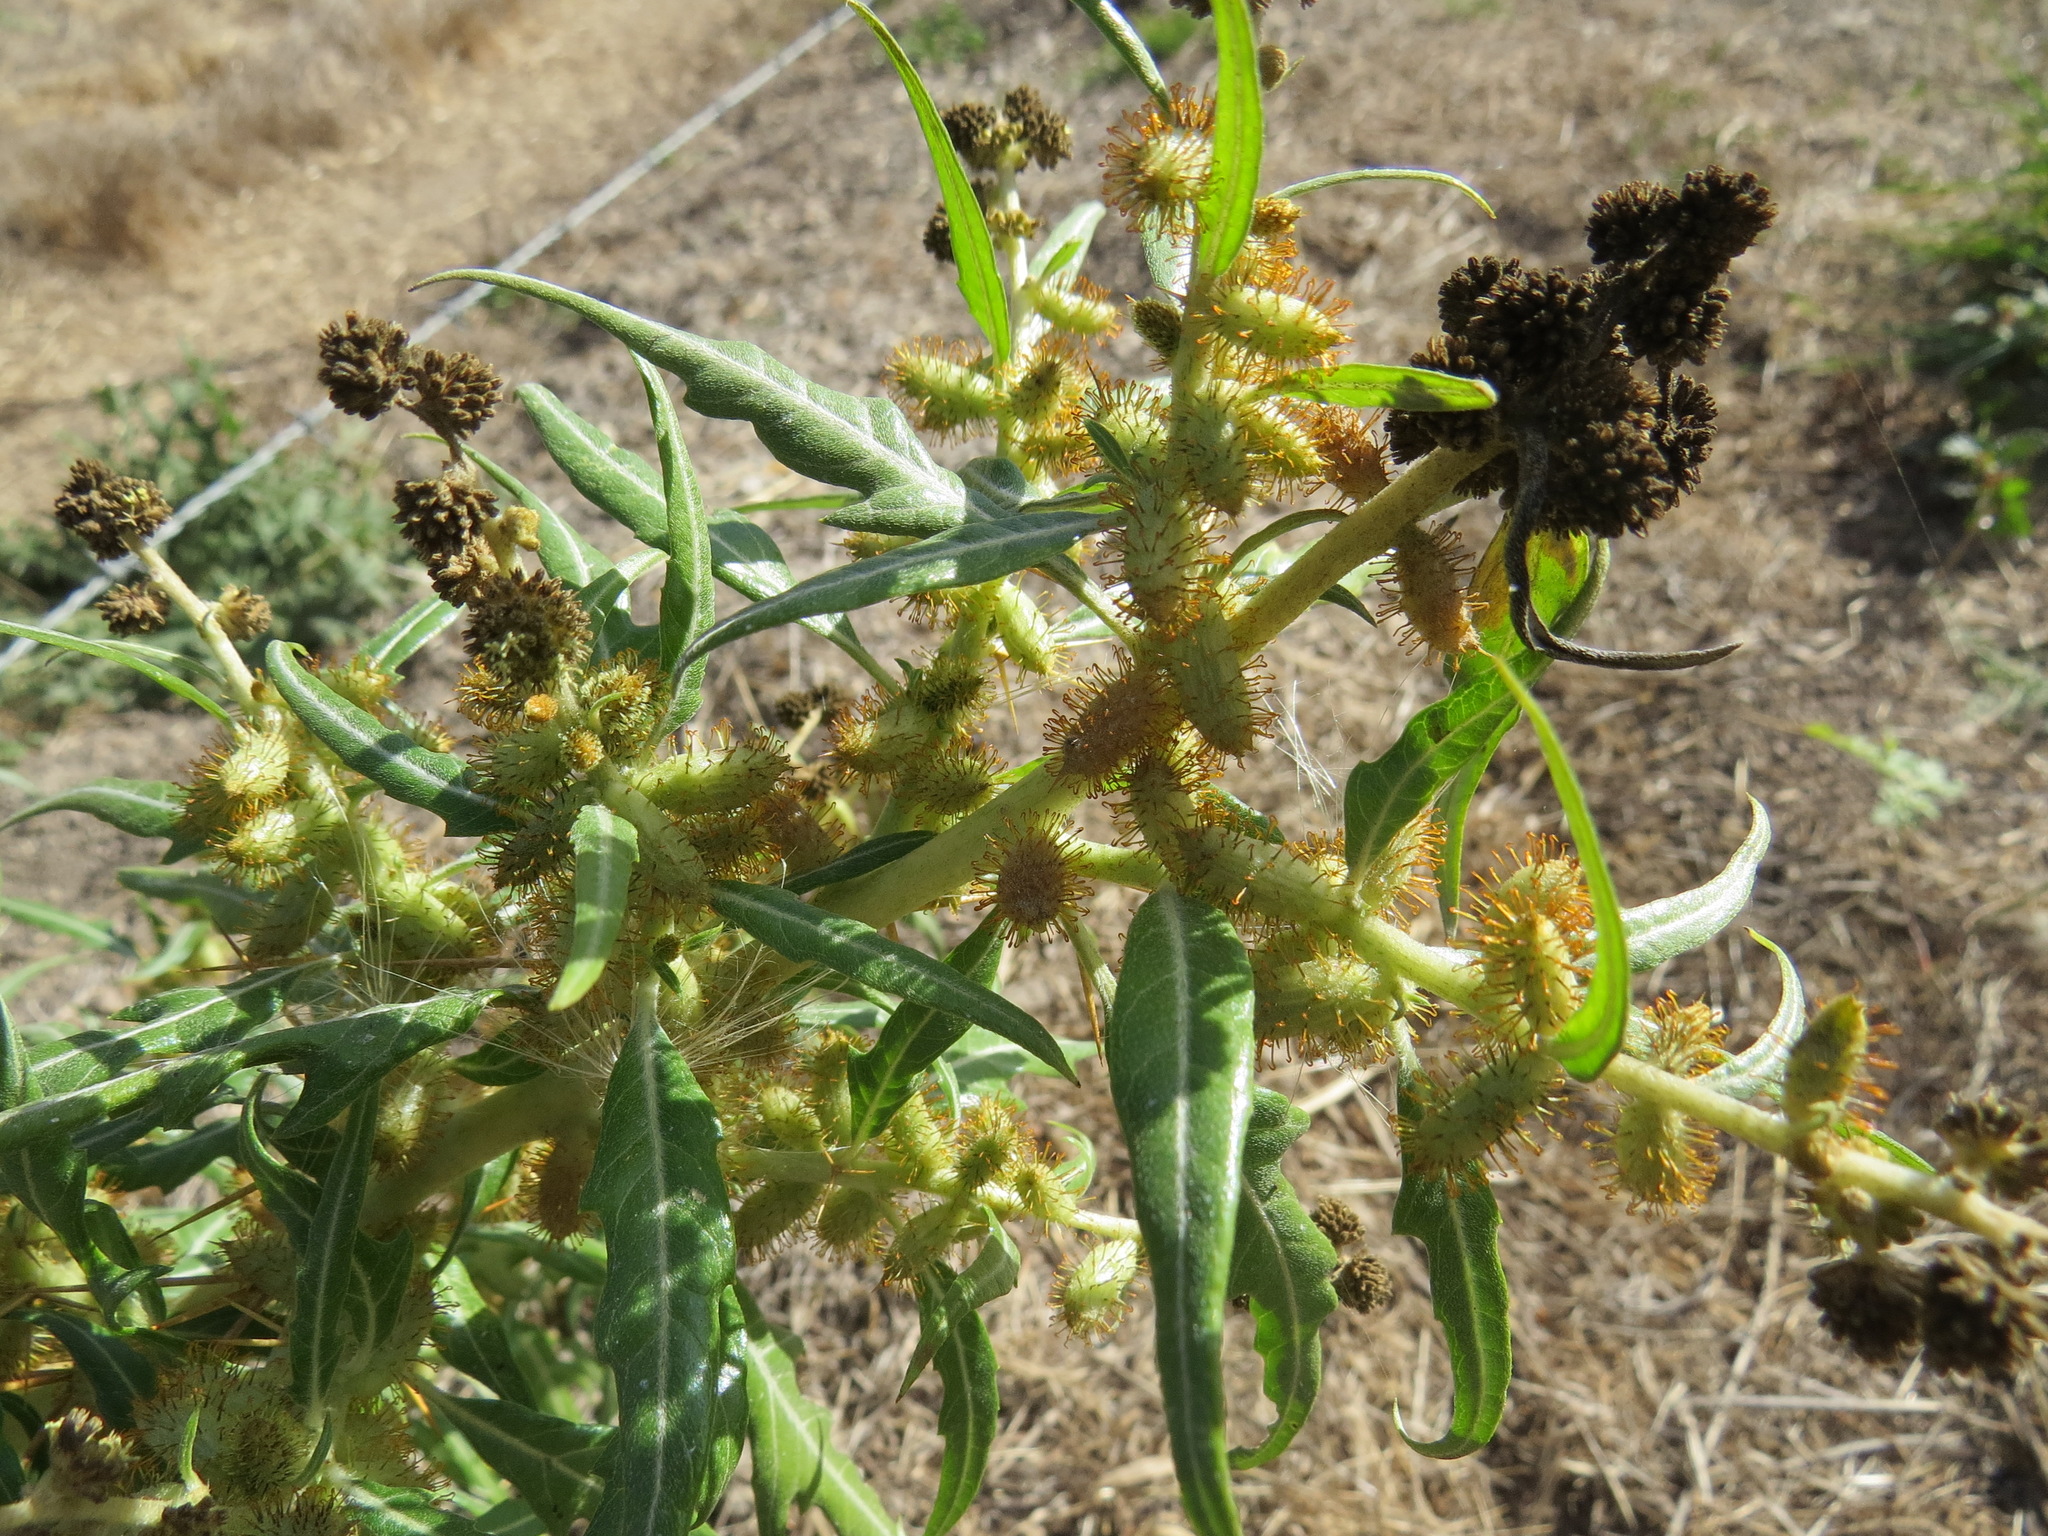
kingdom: Plantae
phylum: Tracheophyta
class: Magnoliopsida
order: Asterales
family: Asteraceae
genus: Xanthium
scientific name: Xanthium spinosum
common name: Spiny cocklebur
